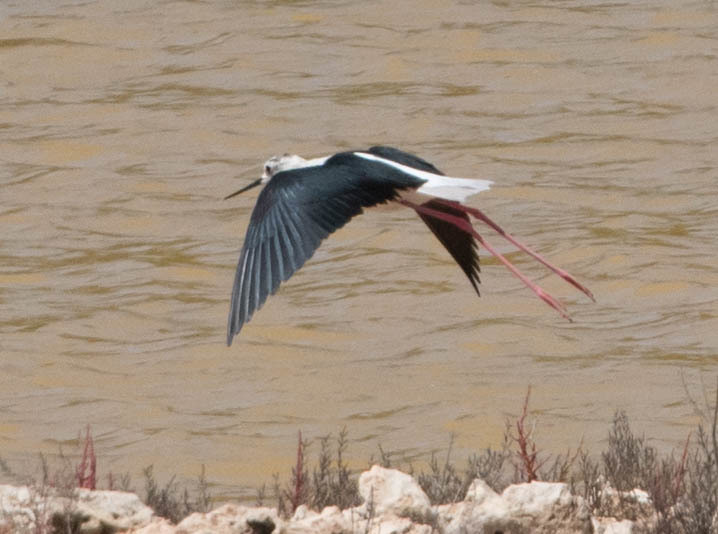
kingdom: Animalia
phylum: Chordata
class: Aves
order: Charadriiformes
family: Recurvirostridae
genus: Himantopus
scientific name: Himantopus himantopus
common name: Black-winged stilt
